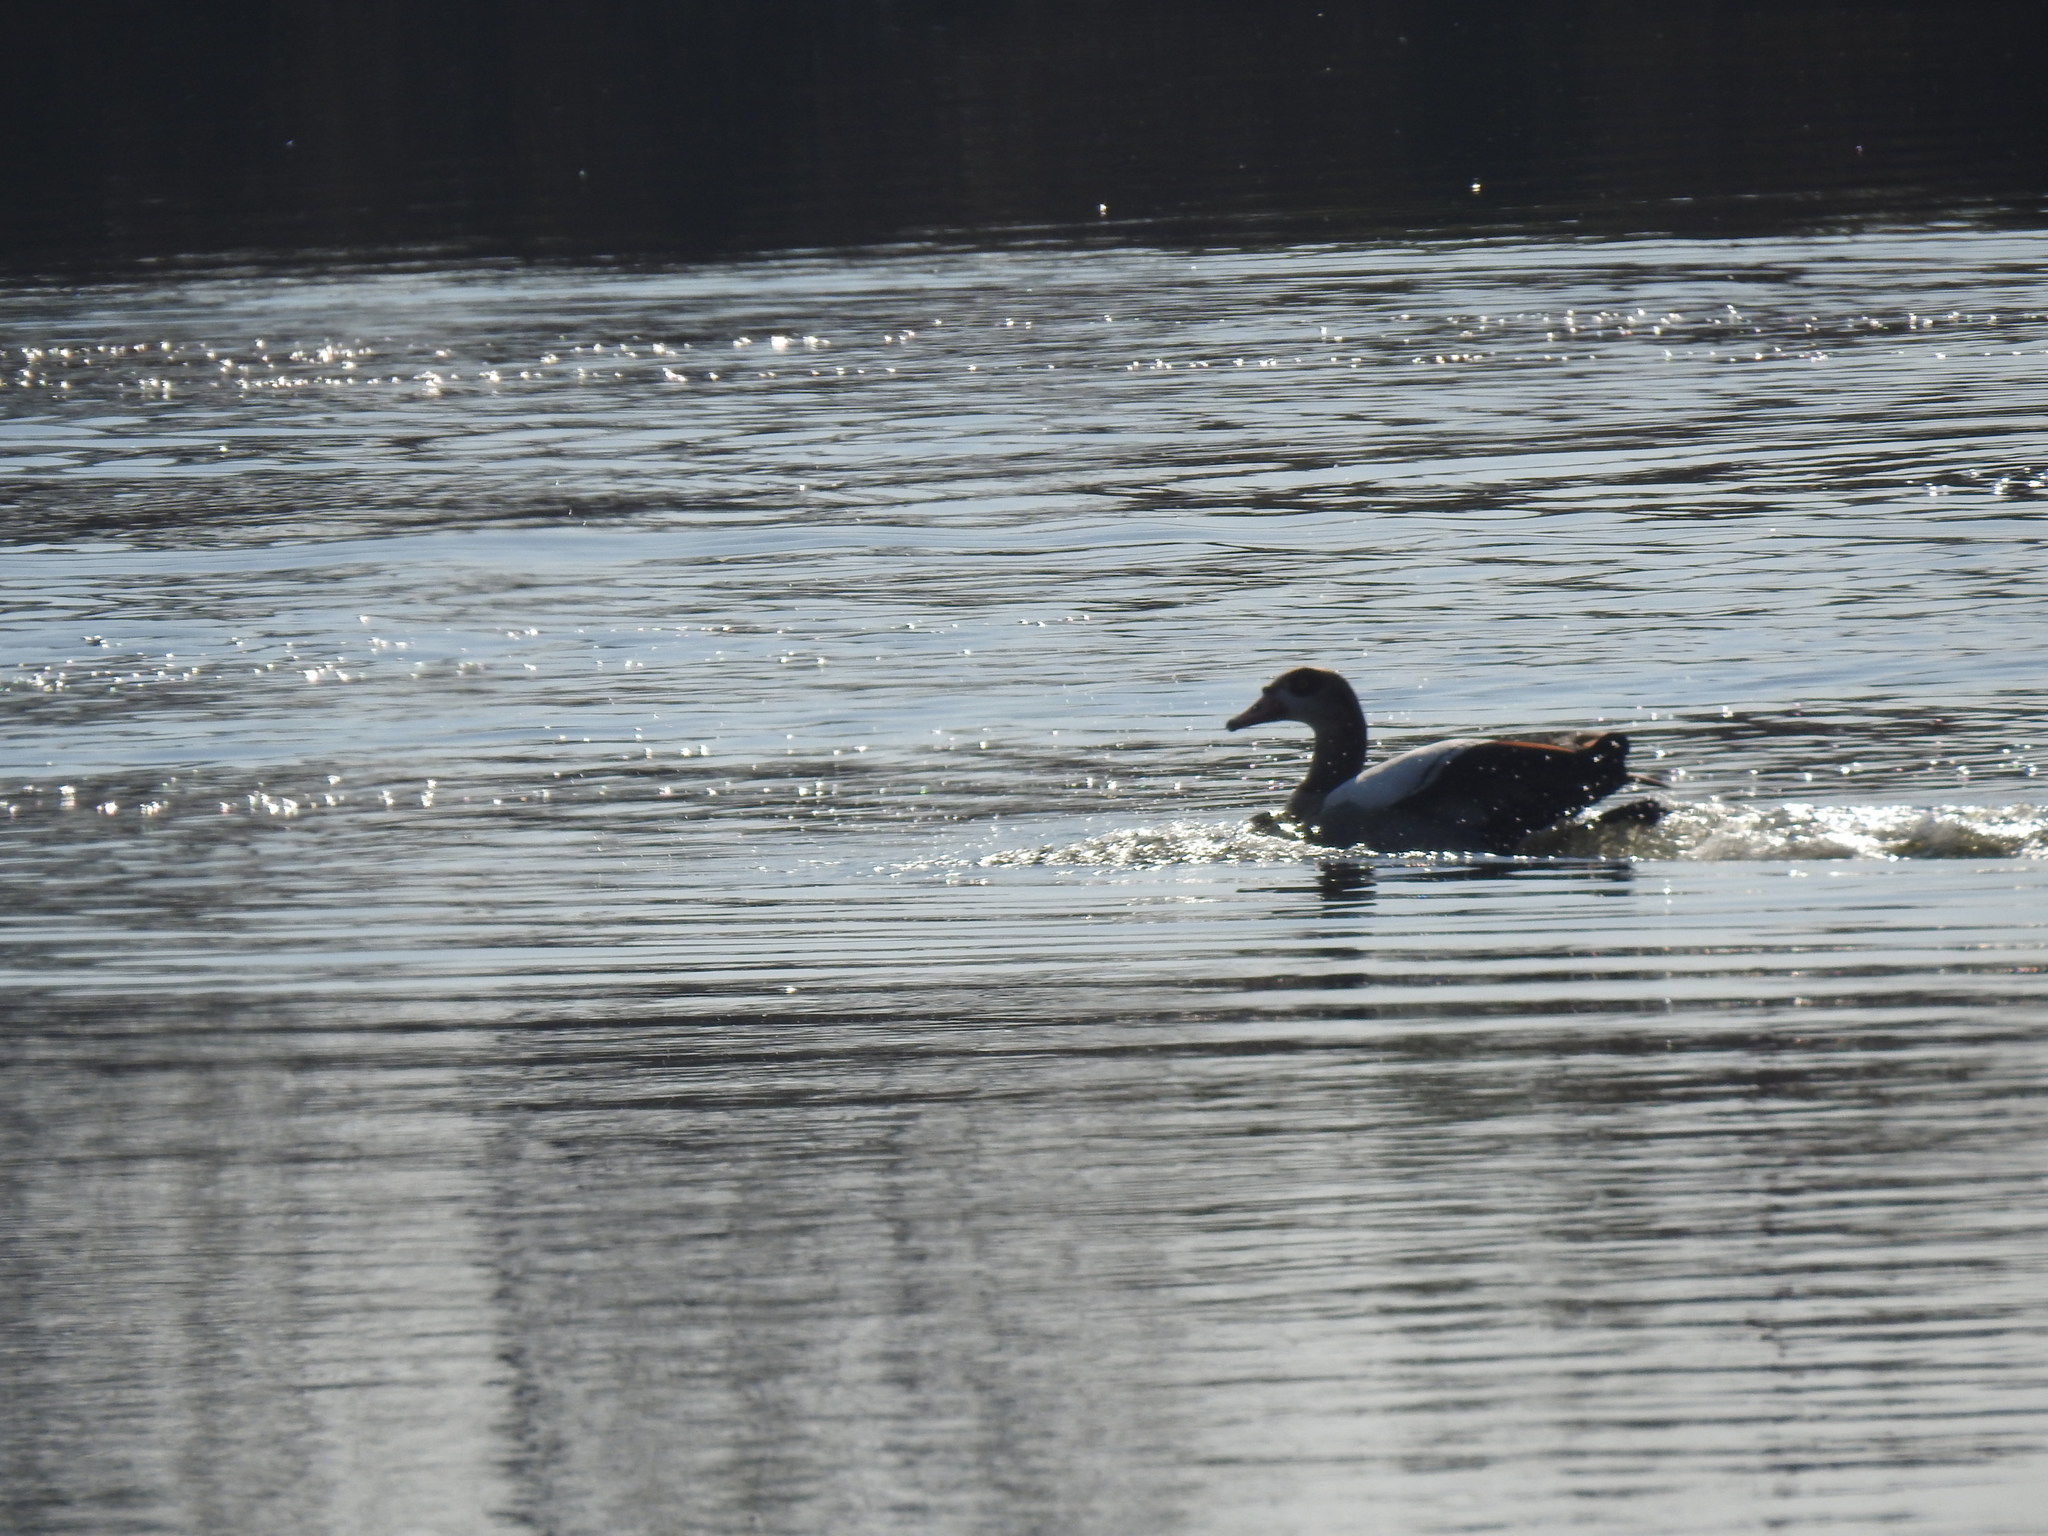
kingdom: Animalia
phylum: Chordata
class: Aves
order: Anseriformes
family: Anatidae
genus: Alopochen
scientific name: Alopochen aegyptiaca
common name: Egyptian goose
